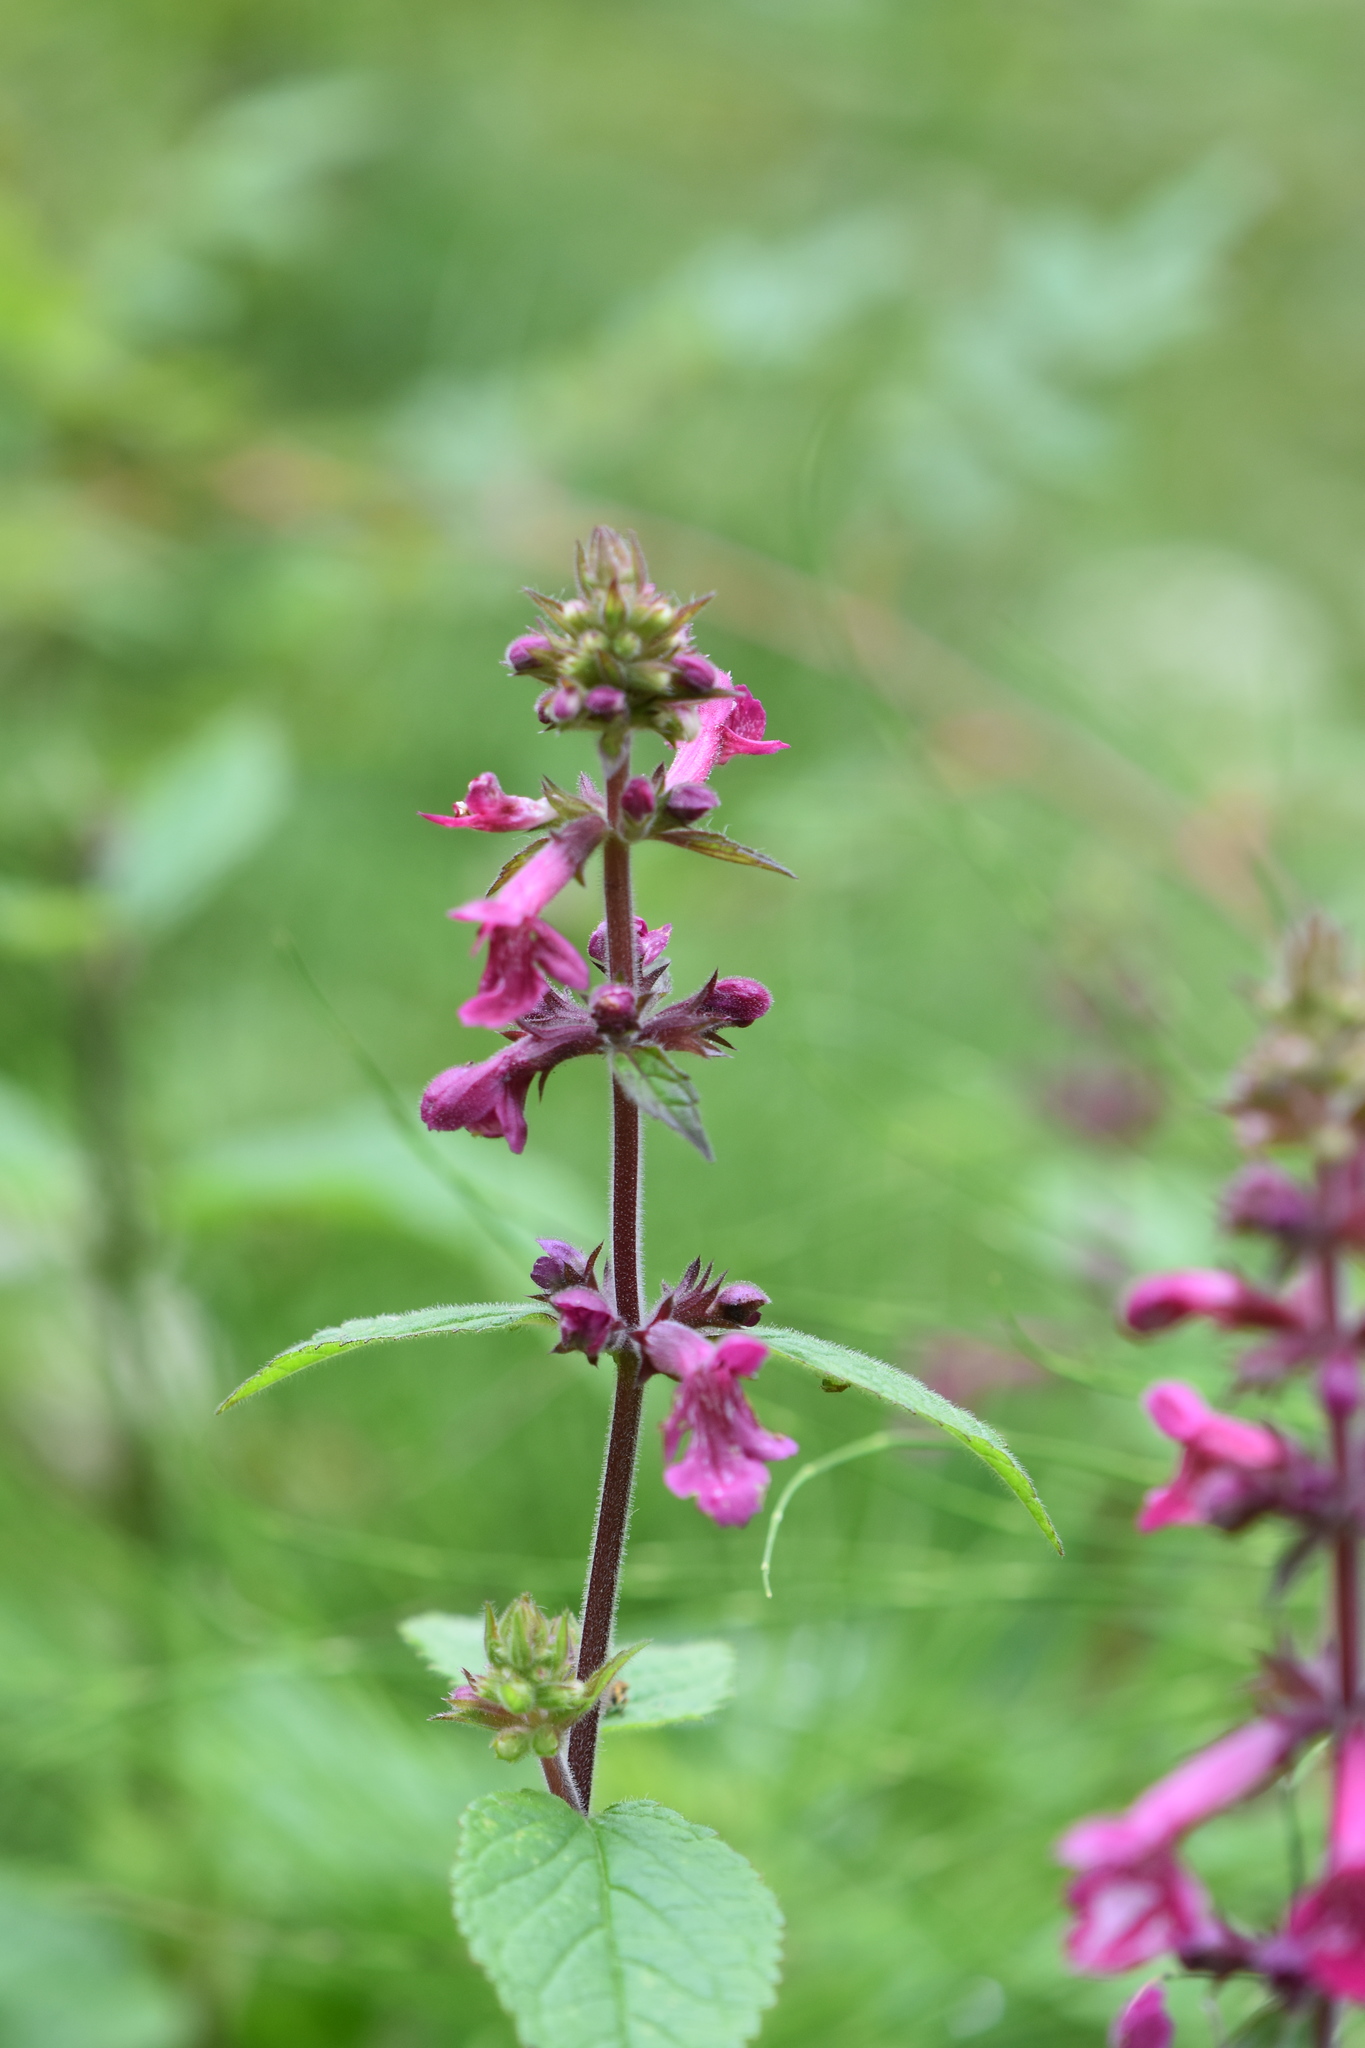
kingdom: Plantae
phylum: Tracheophyta
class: Magnoliopsida
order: Lamiales
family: Lamiaceae
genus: Stachys
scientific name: Stachys chamissonis
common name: Coastal hedge-nettle
